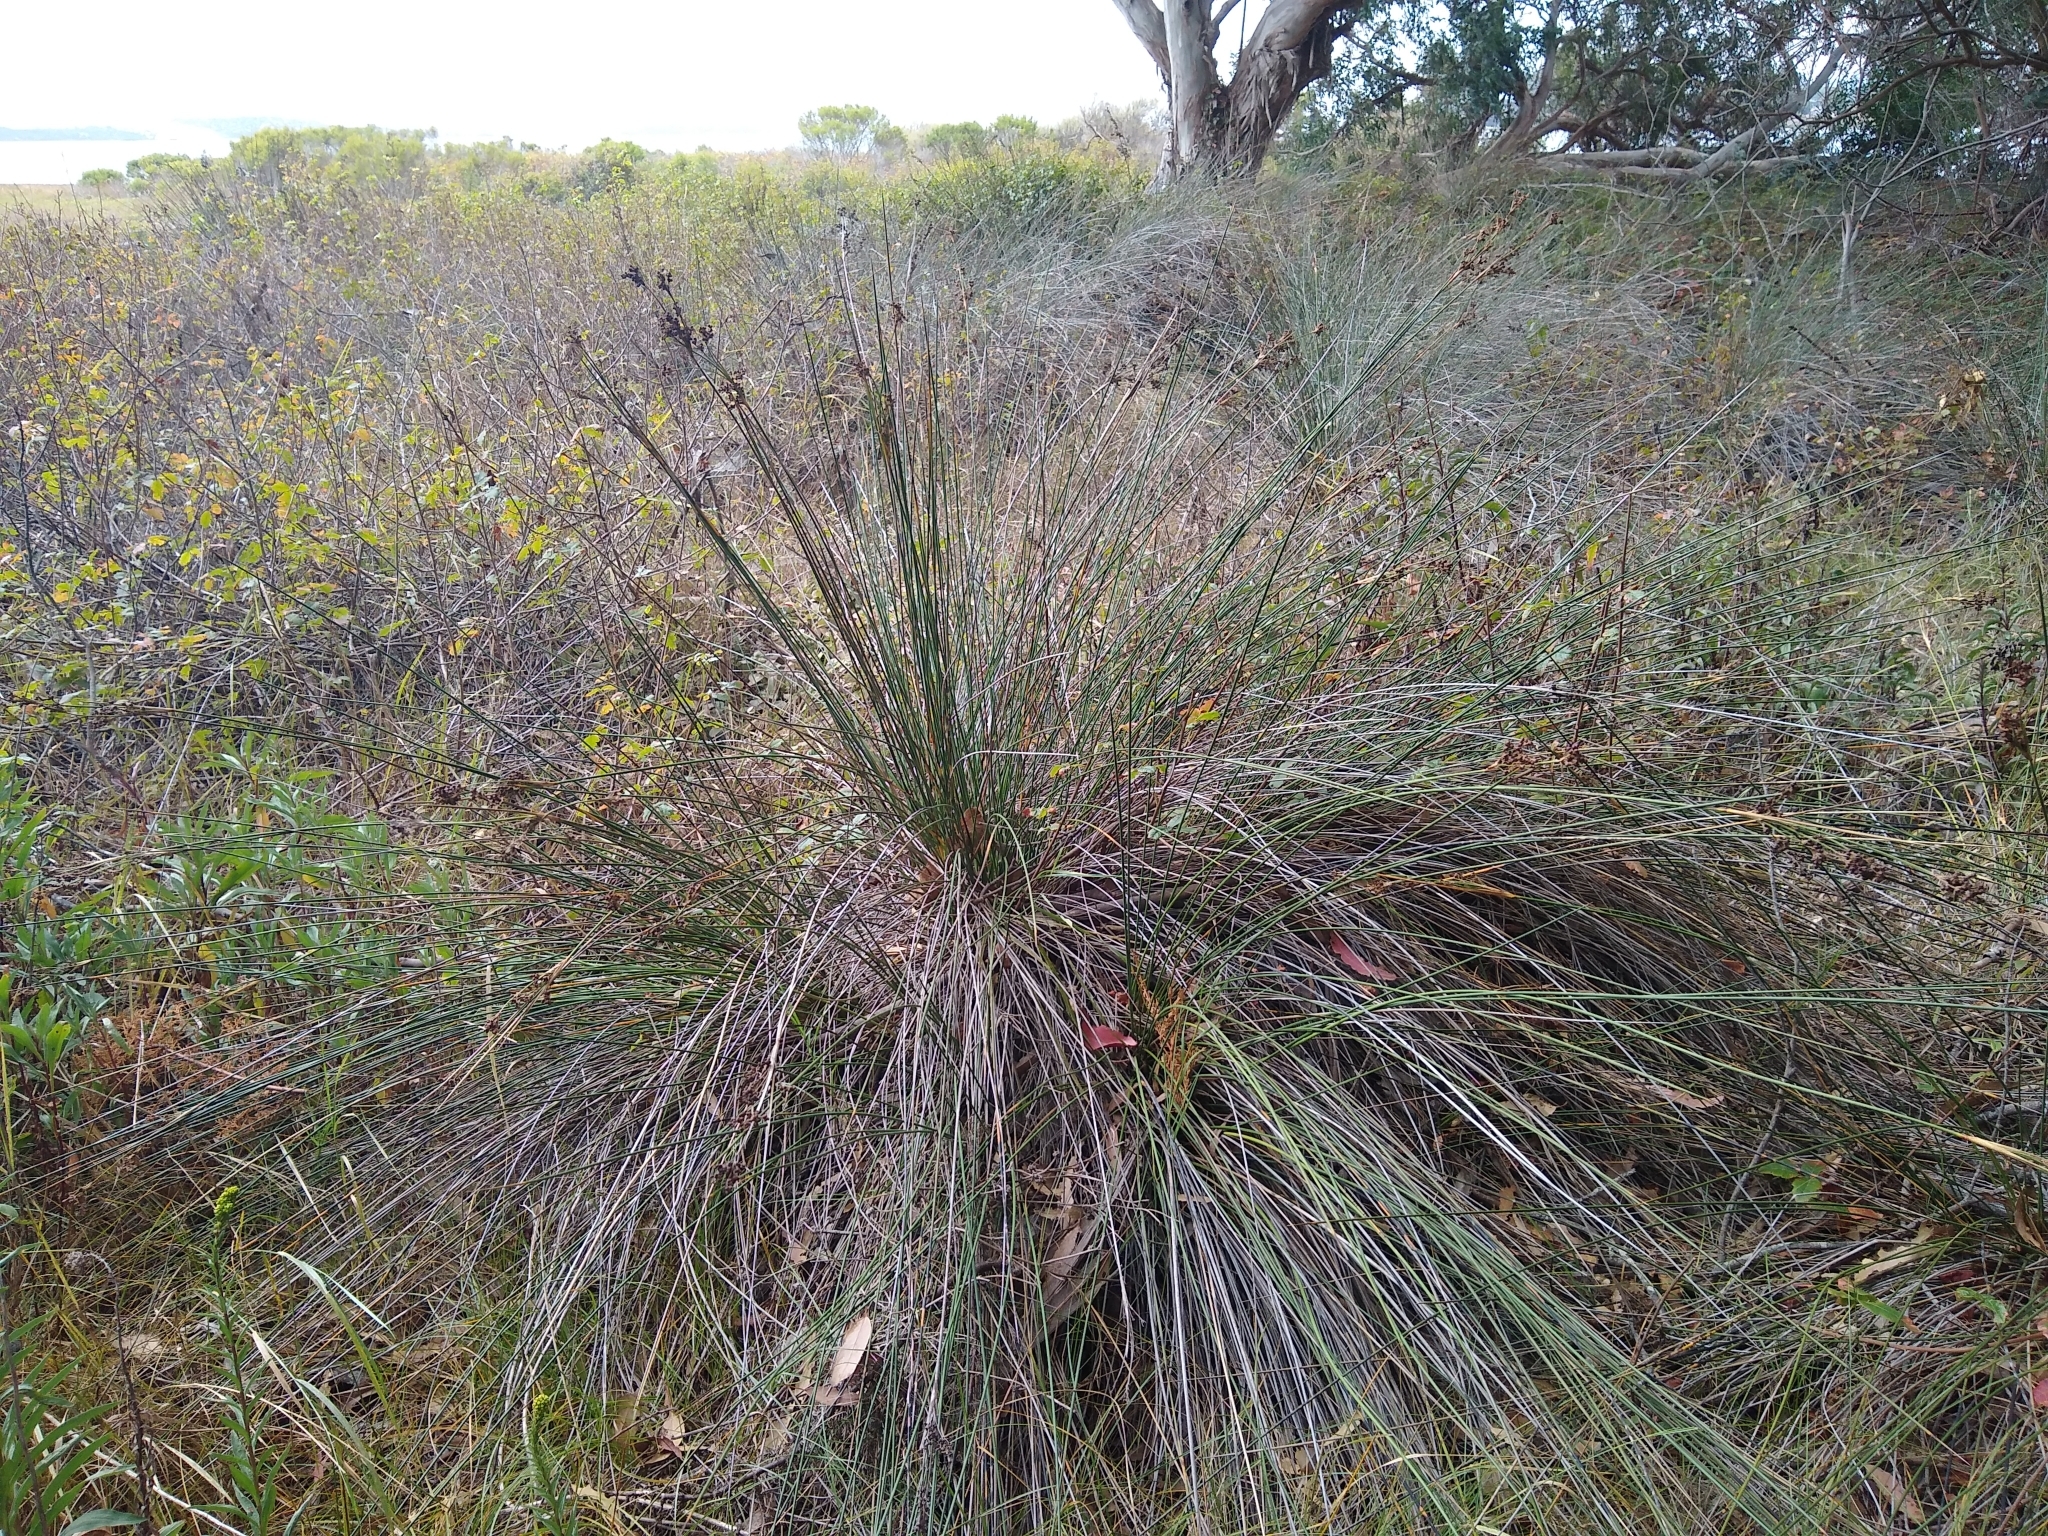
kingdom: Plantae
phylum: Tracheophyta
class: Liliopsida
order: Poales
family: Juncaceae
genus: Juncus
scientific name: Juncus acutus
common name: Sharp rush
